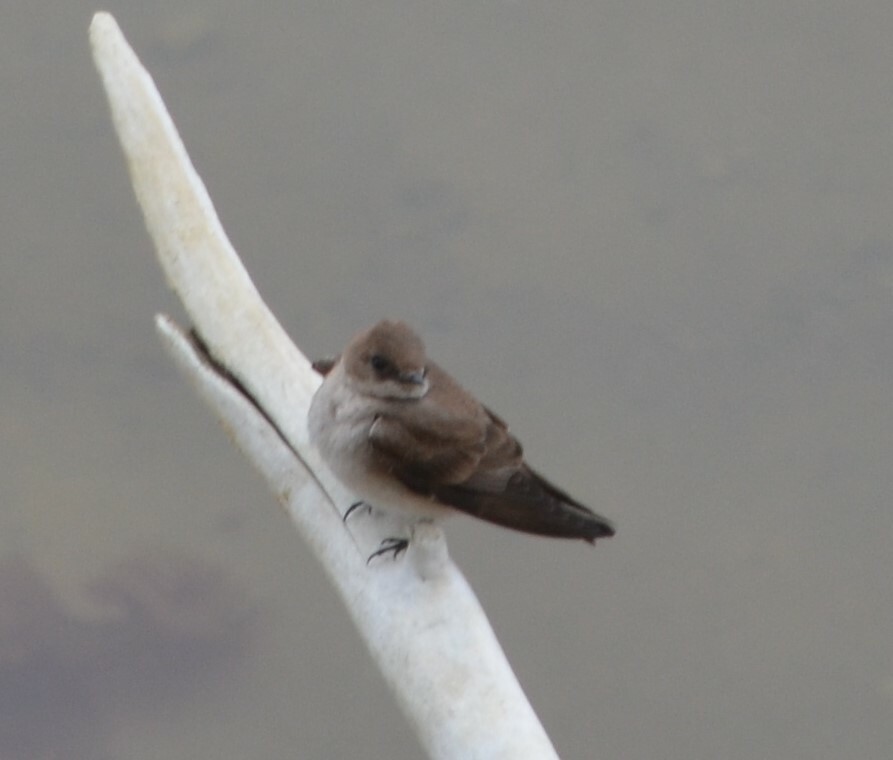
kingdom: Animalia
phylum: Chordata
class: Aves
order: Passeriformes
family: Hirundinidae
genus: Stelgidopteryx
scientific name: Stelgidopteryx serripennis
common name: Northern rough-winged swallow
